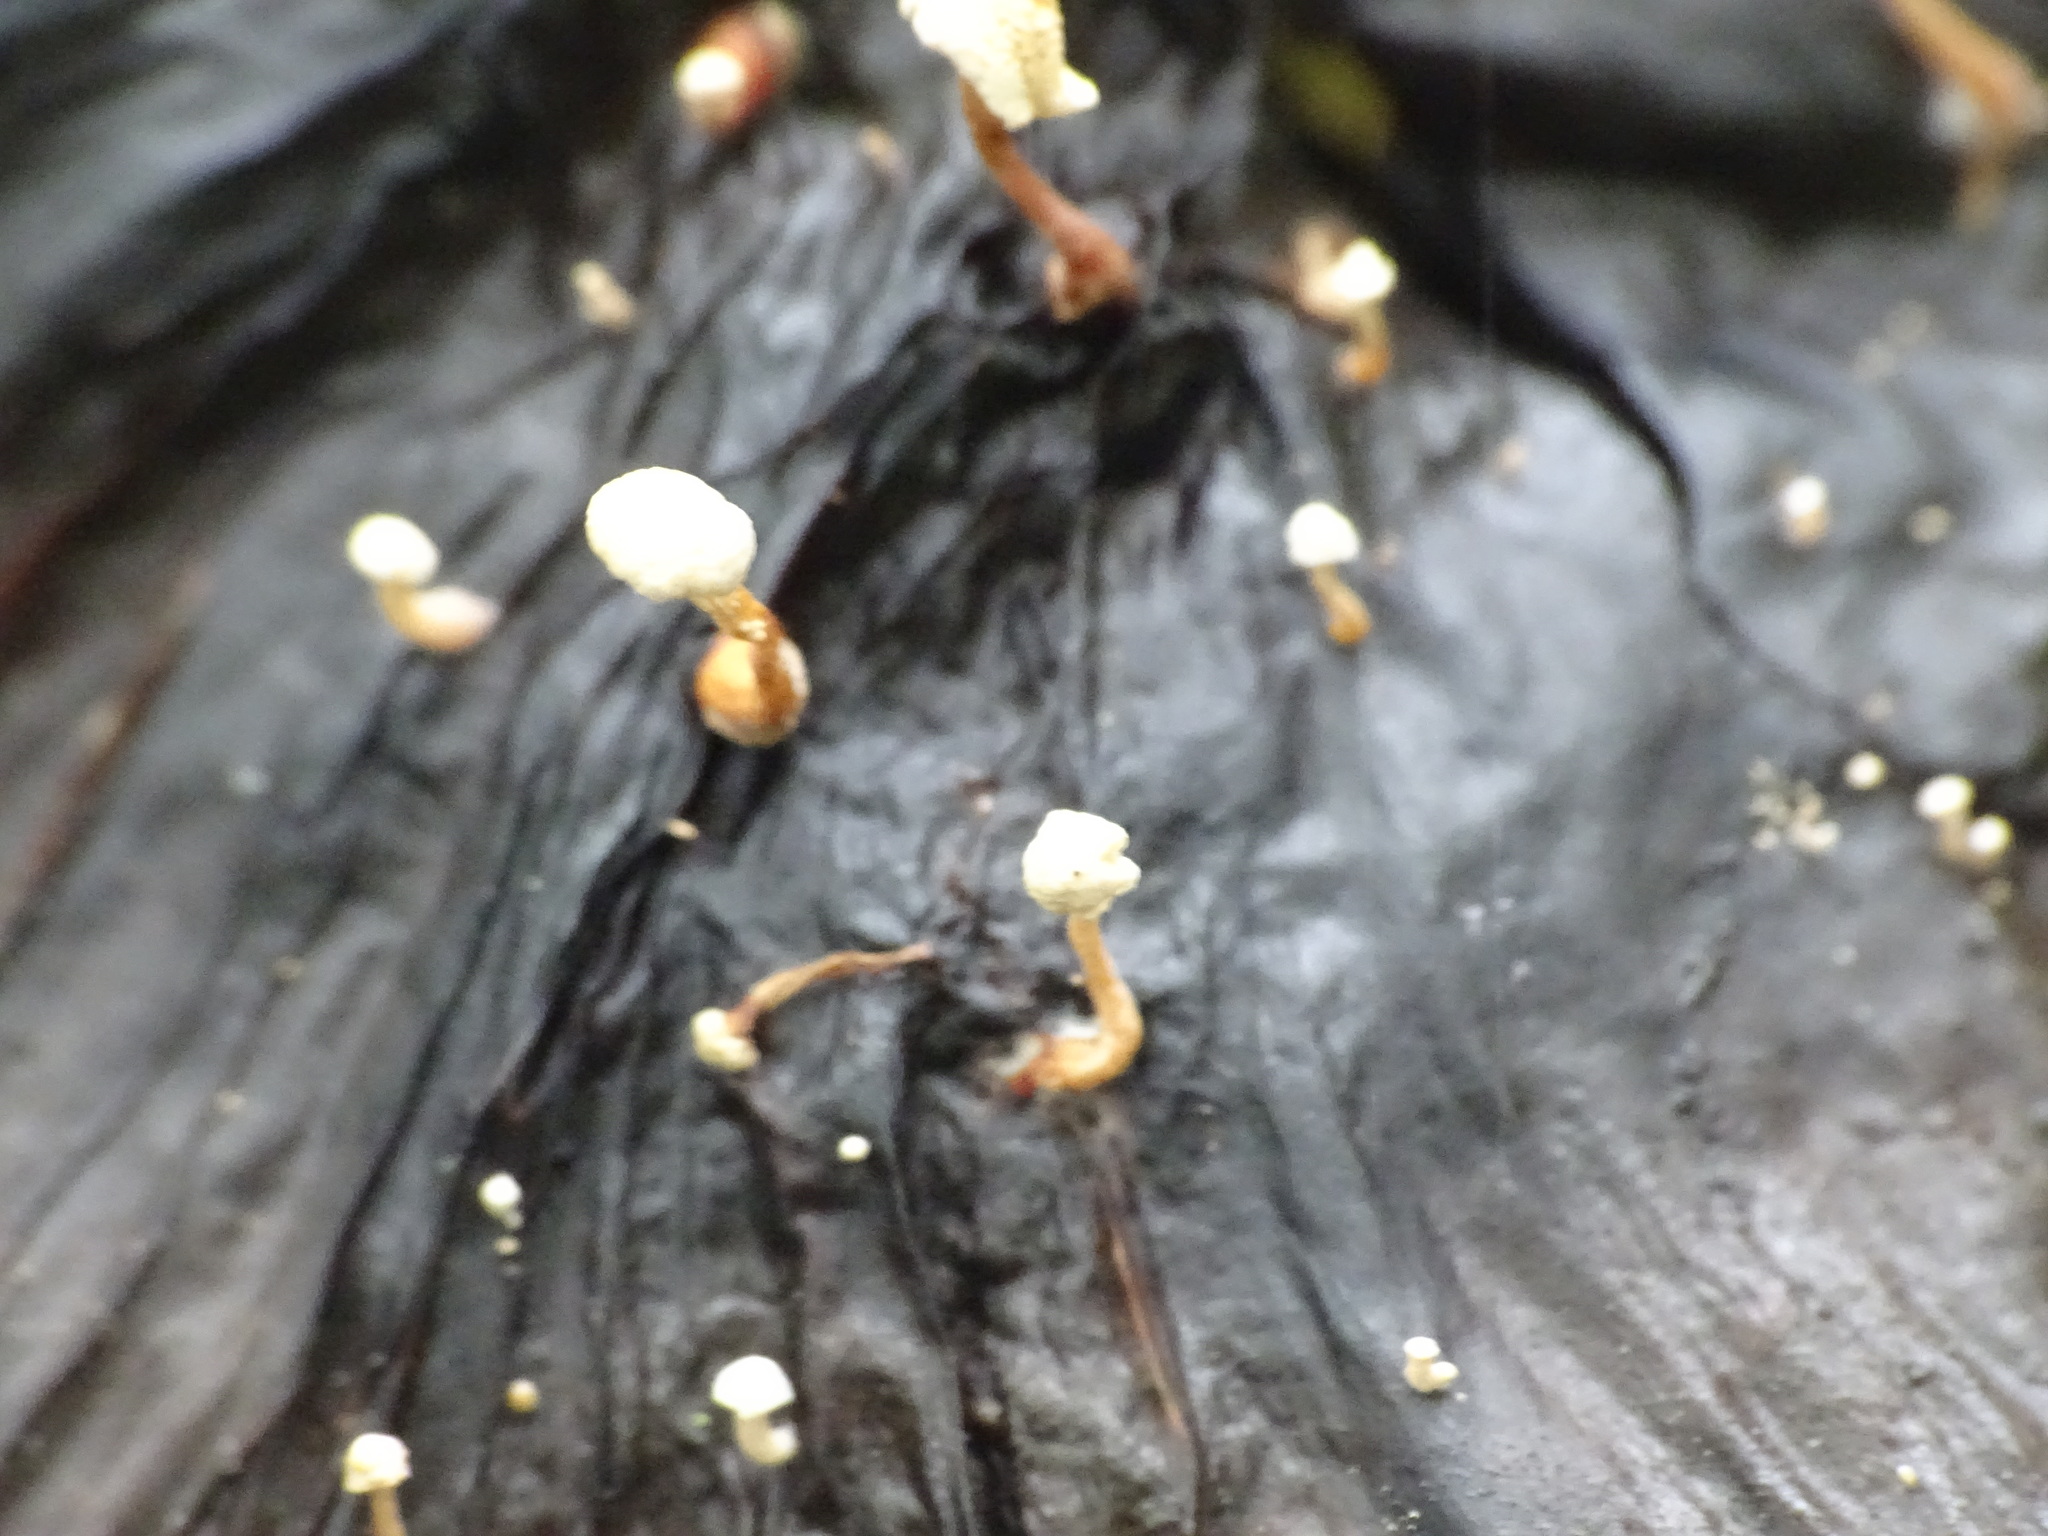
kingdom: Fungi
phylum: Basidiomycota
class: Agaricomycetes
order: Agaricales
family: Tricholomataceae
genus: Collybia
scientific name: Collybia cookei
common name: Splitpea shanklet
